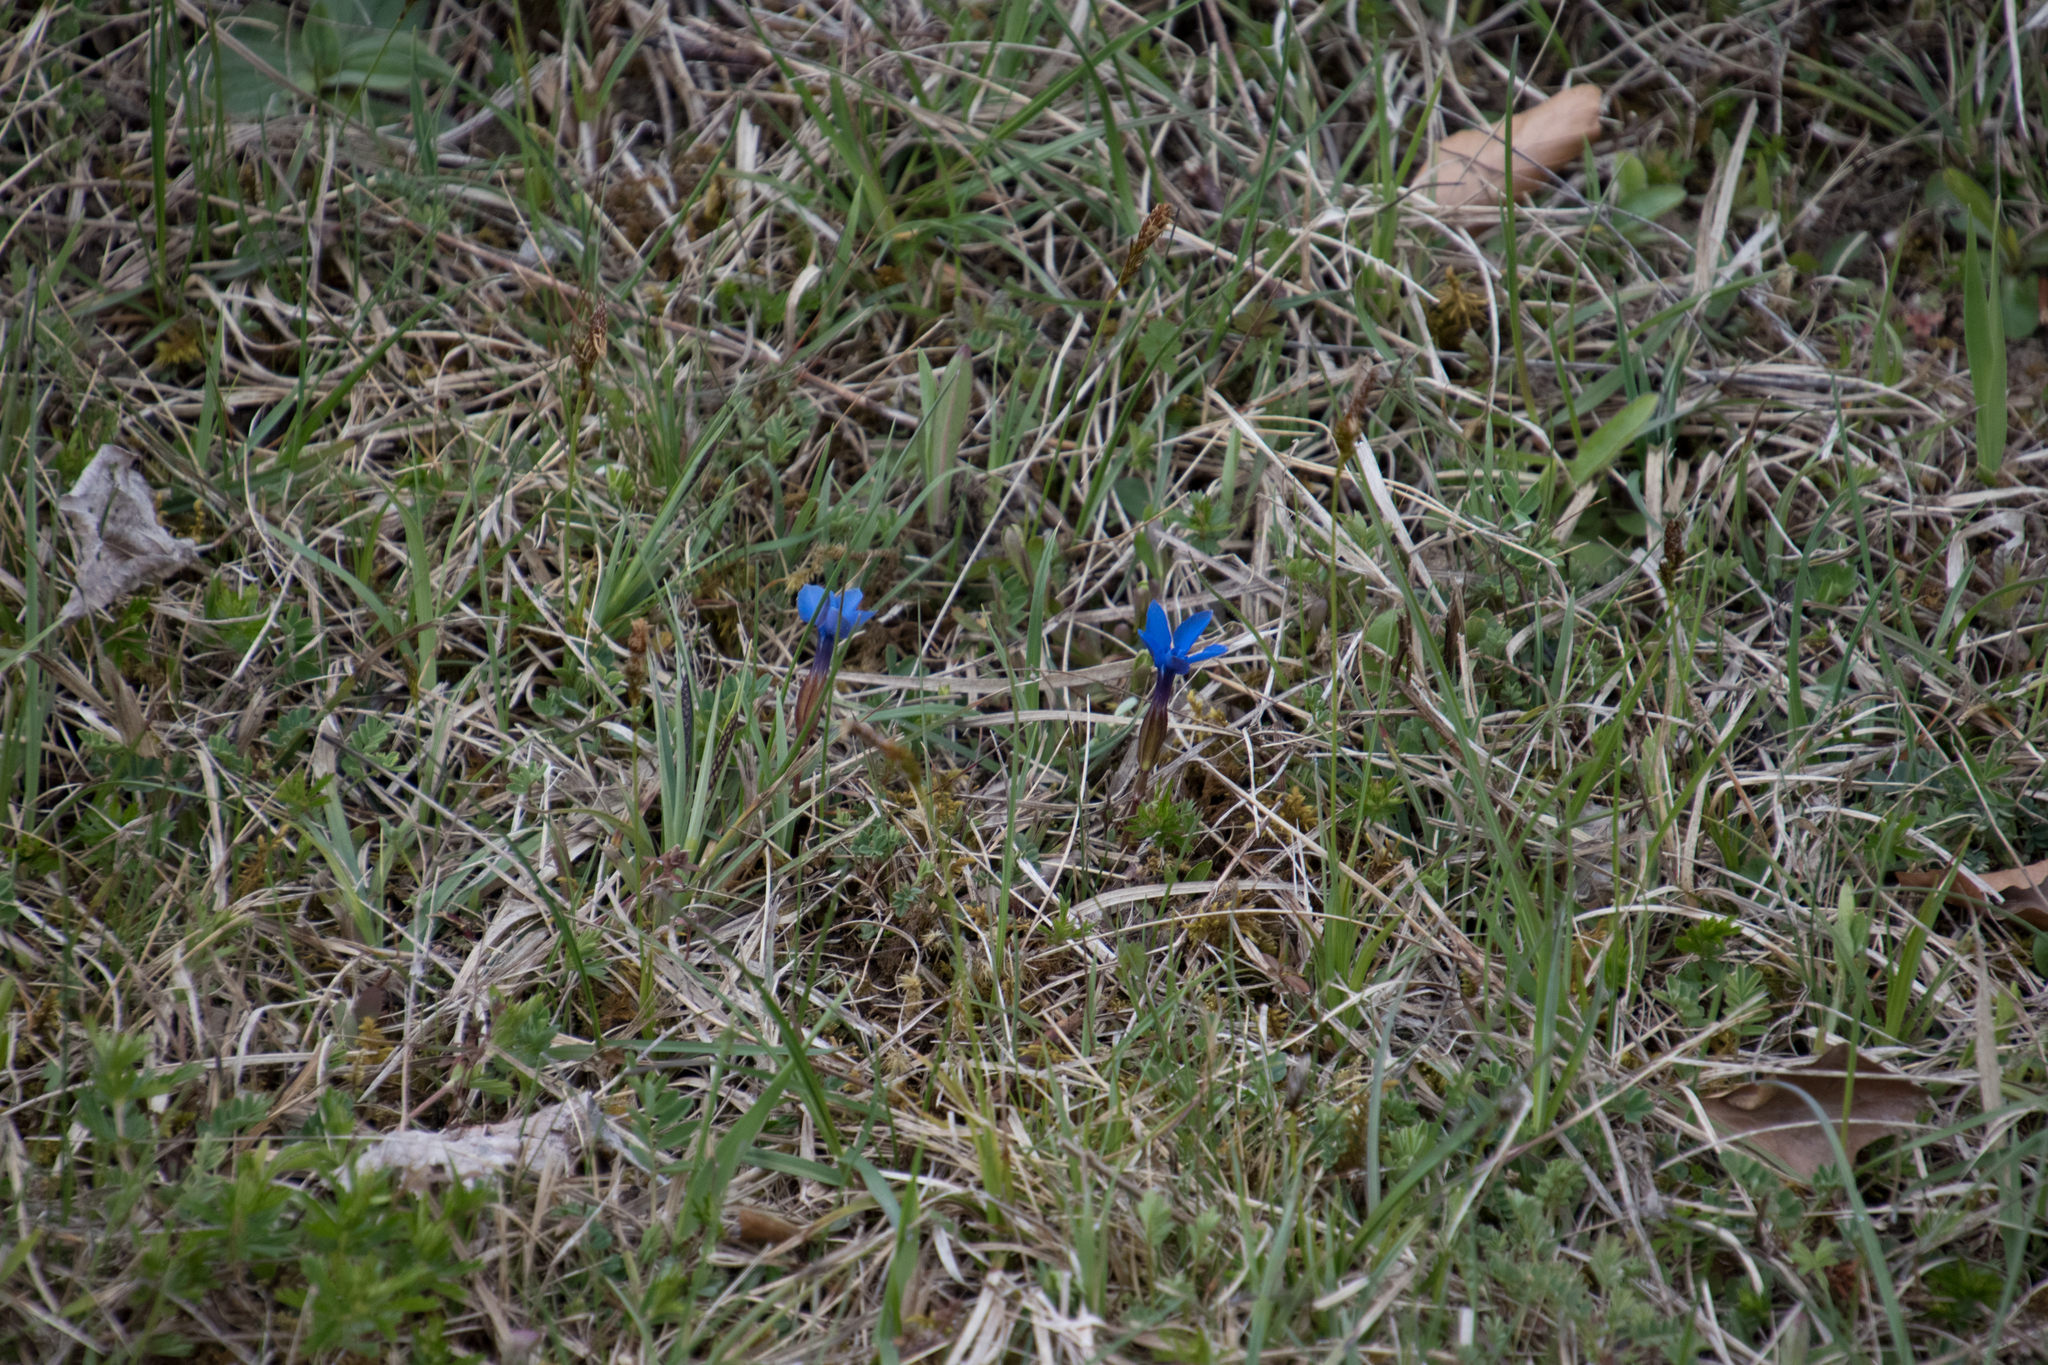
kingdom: Plantae
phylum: Tracheophyta
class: Magnoliopsida
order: Gentianales
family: Gentianaceae
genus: Gentiana
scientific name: Gentiana verna
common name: Spring gentian
